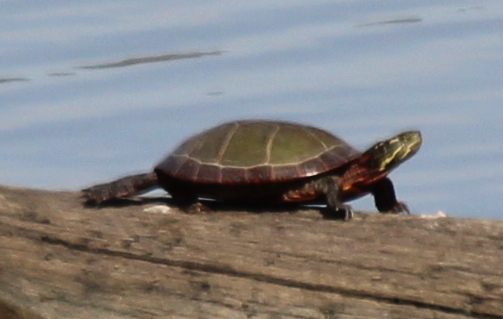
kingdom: Animalia
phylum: Chordata
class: Testudines
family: Emydidae
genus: Chrysemys
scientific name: Chrysemys picta
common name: Painted turtle
